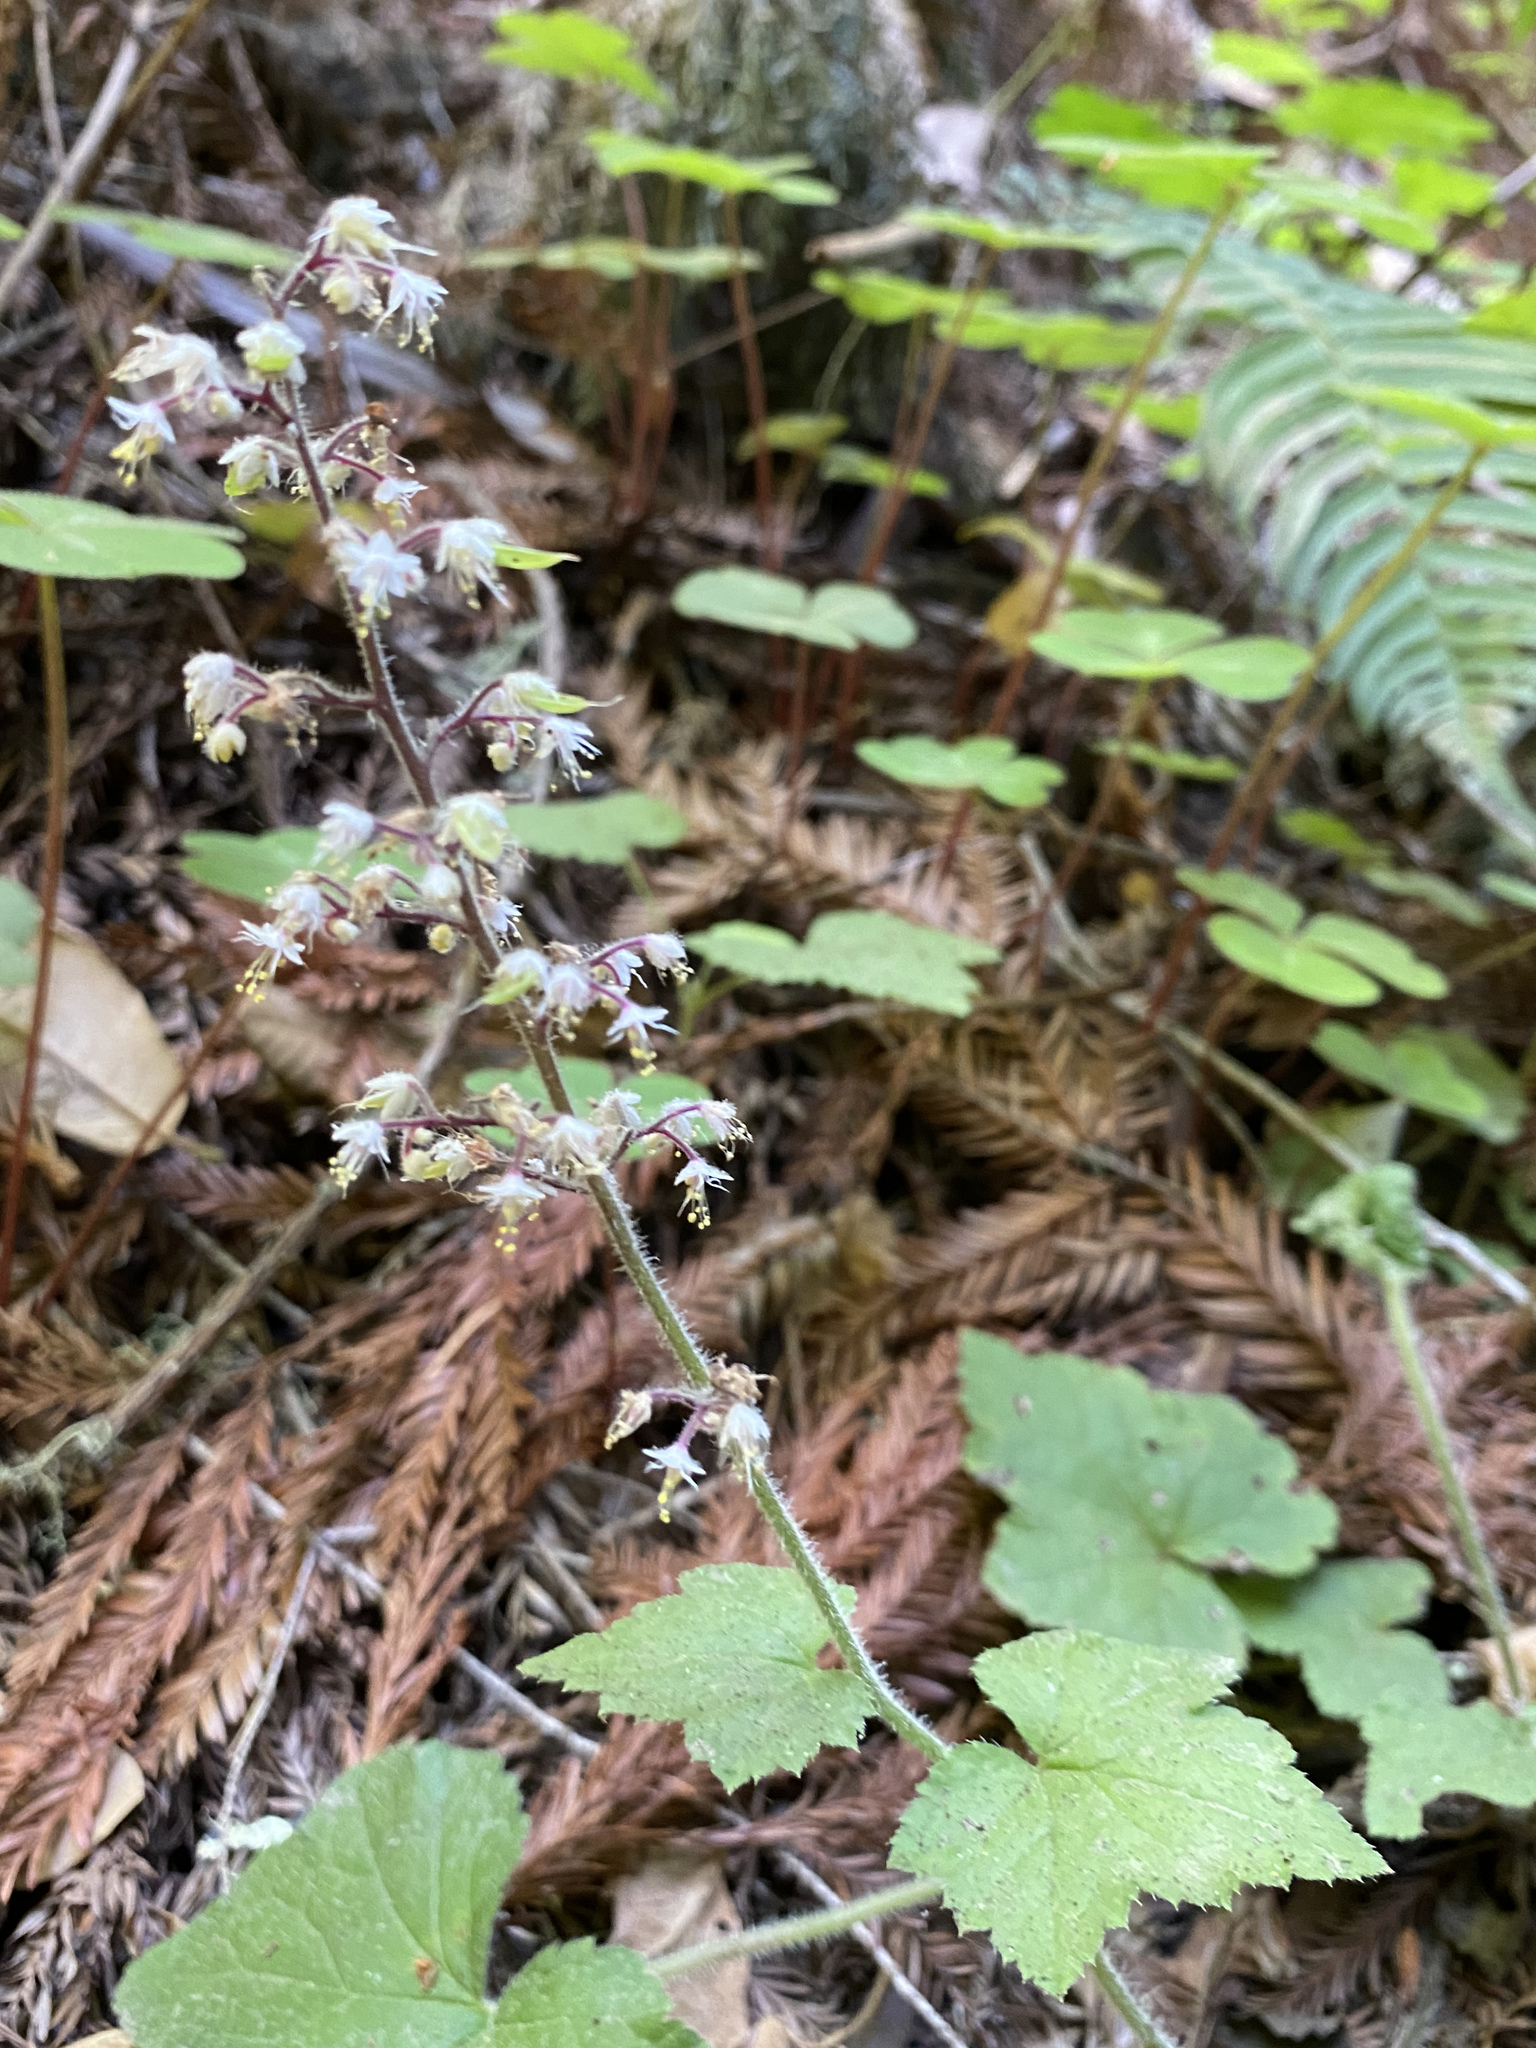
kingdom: Plantae
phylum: Tracheophyta
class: Magnoliopsida
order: Saxifragales
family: Saxifragaceae
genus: Tiarella
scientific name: Tiarella trifoliata
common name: Sugar-scoop
